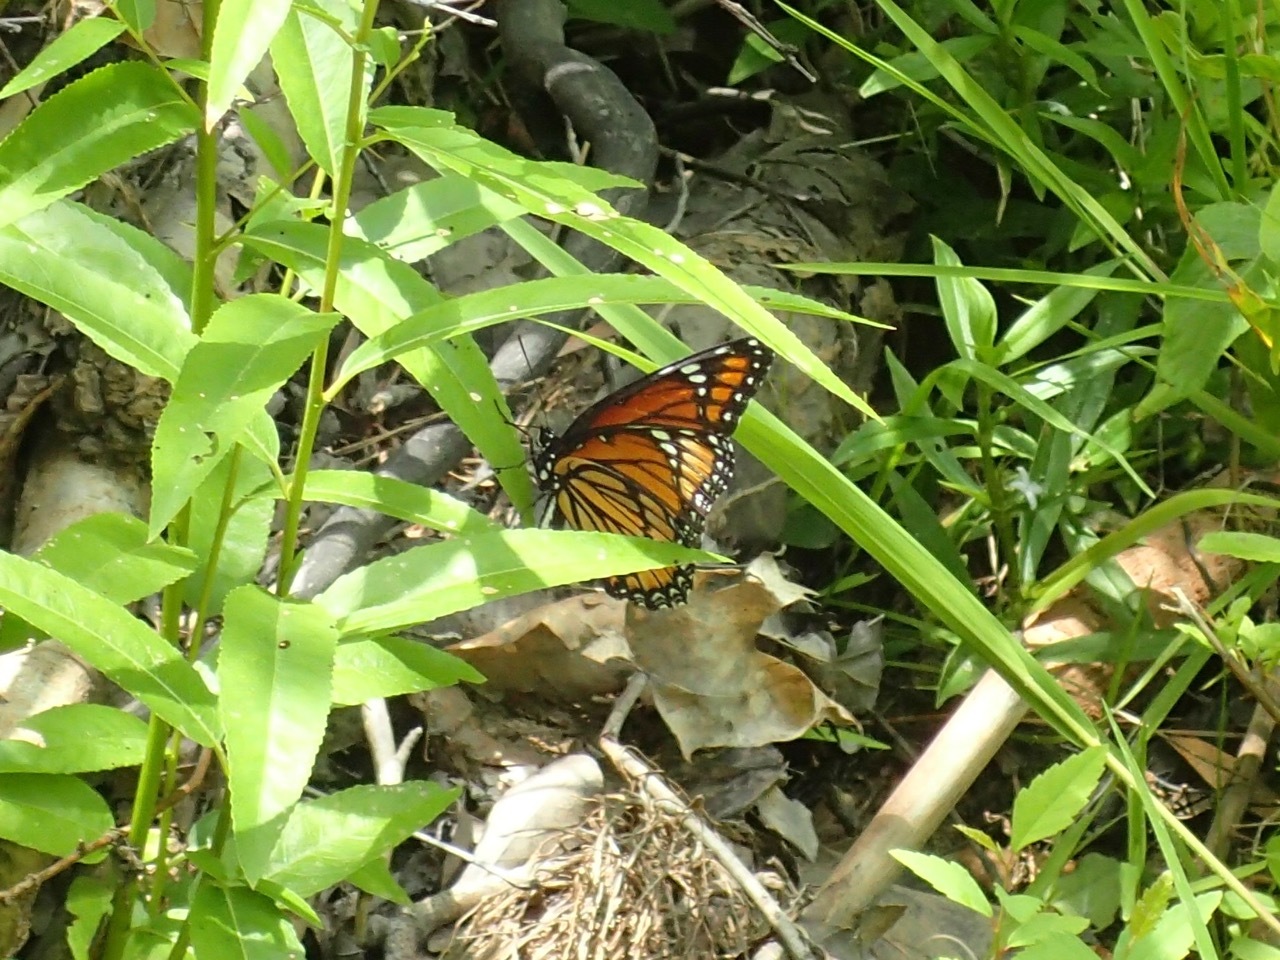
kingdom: Animalia
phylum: Arthropoda
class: Insecta
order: Lepidoptera
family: Nymphalidae
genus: Limenitis
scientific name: Limenitis archippus
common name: Viceroy
